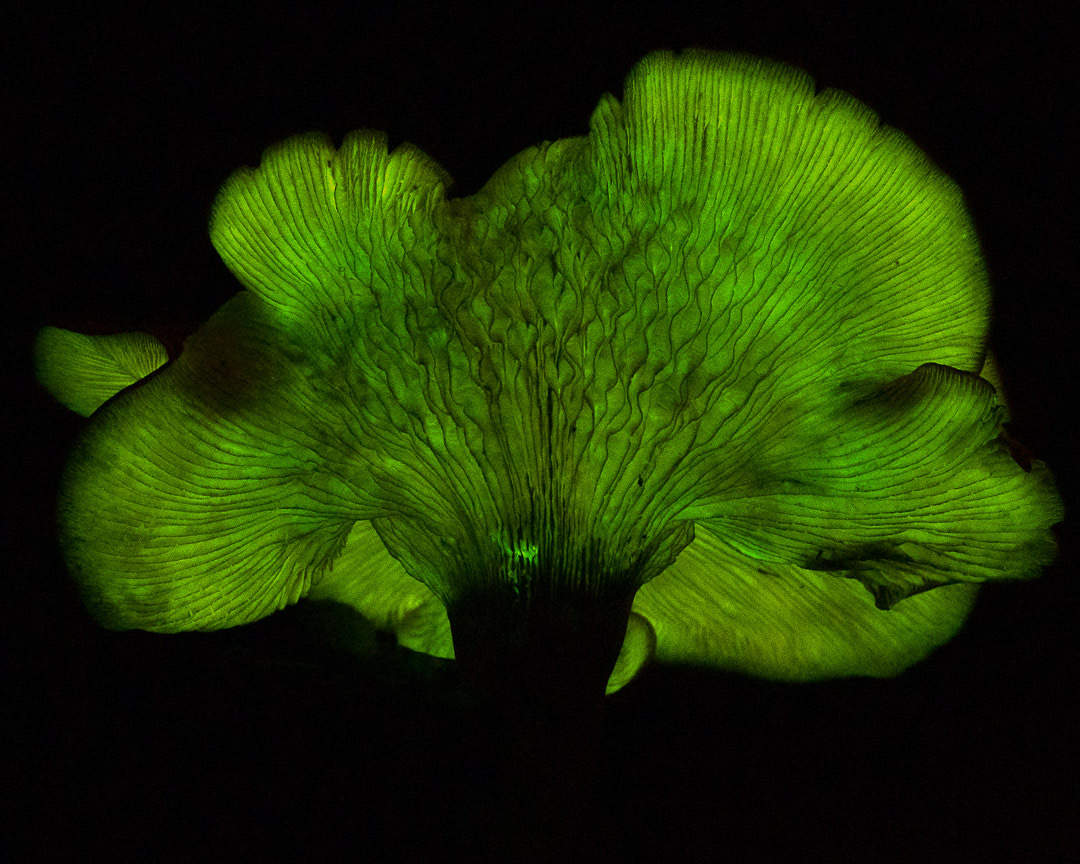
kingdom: Fungi
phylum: Basidiomycota
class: Agaricomycetes
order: Agaricales
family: Omphalotaceae
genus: Omphalotus
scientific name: Omphalotus subilludens
